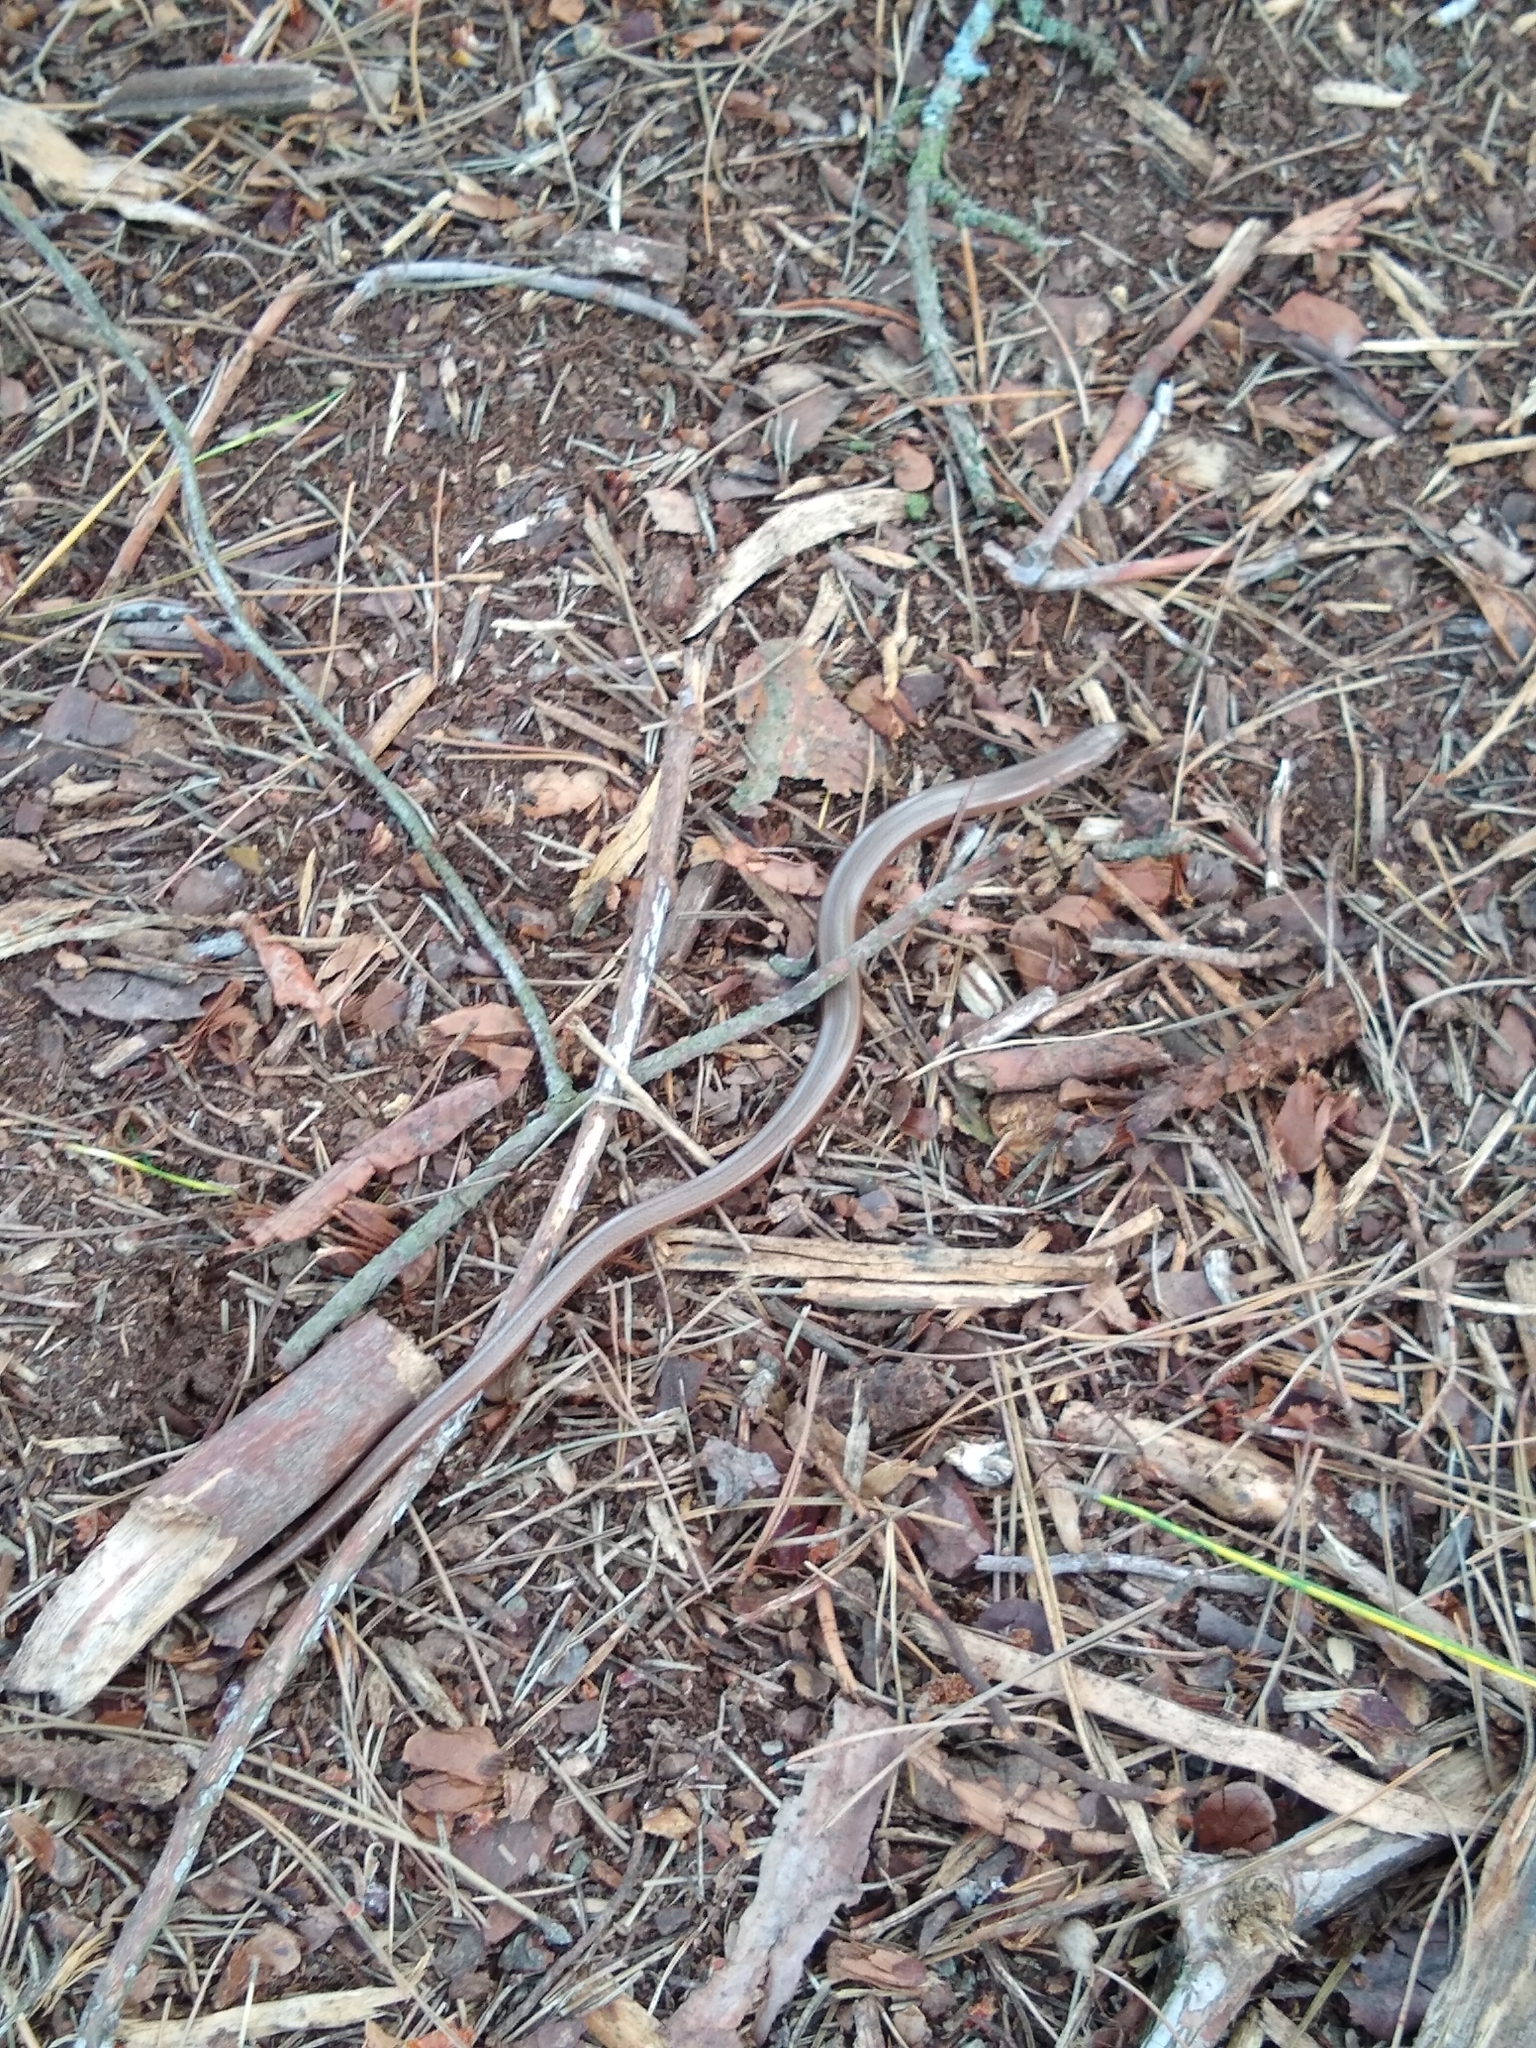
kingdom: Animalia
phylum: Chordata
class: Squamata
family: Anguidae
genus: Anguis
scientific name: Anguis fragilis
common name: Slow worm
